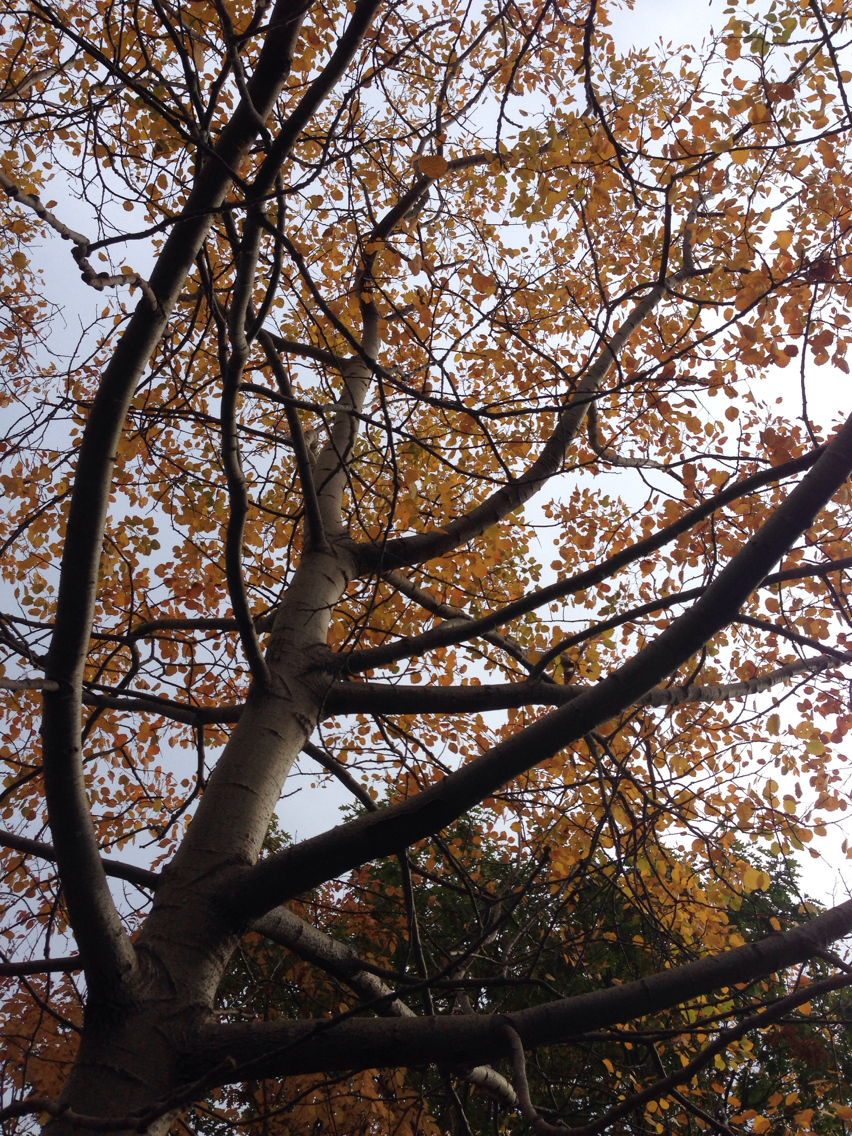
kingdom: Plantae
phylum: Tracheophyta
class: Magnoliopsida
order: Malpighiales
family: Salicaceae
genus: Populus
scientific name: Populus grandidentata
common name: Bigtooth aspen
